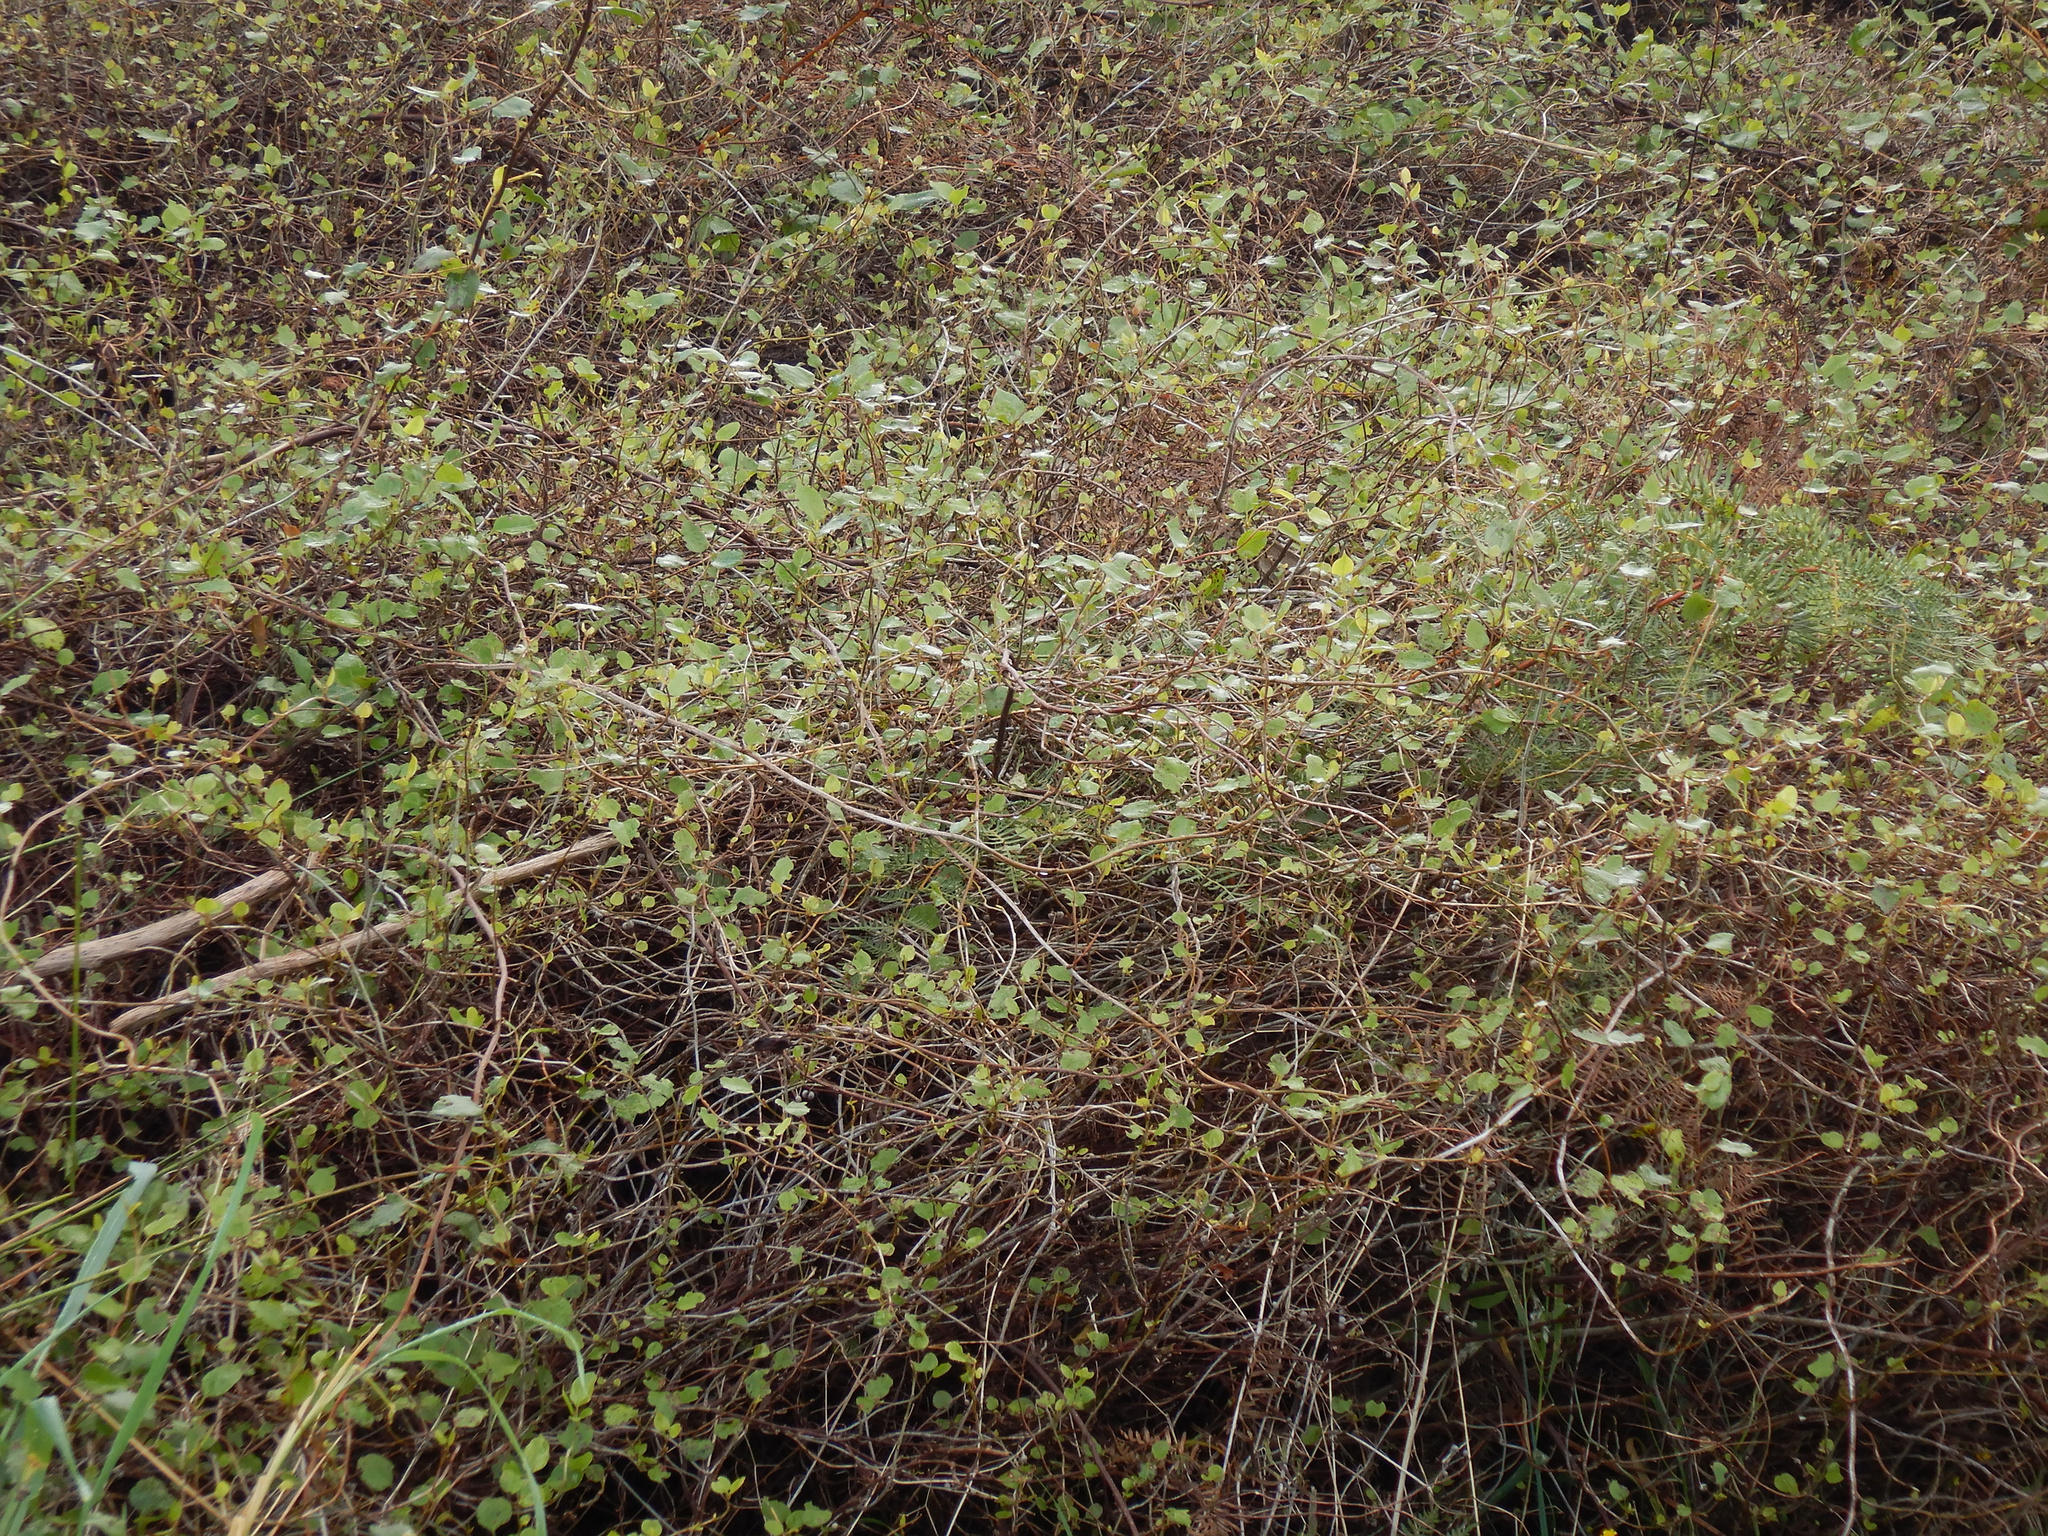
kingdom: Plantae
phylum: Tracheophyta
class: Magnoliopsida
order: Caryophyllales
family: Polygonaceae
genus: Muehlenbeckia
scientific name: Muehlenbeckia australis
